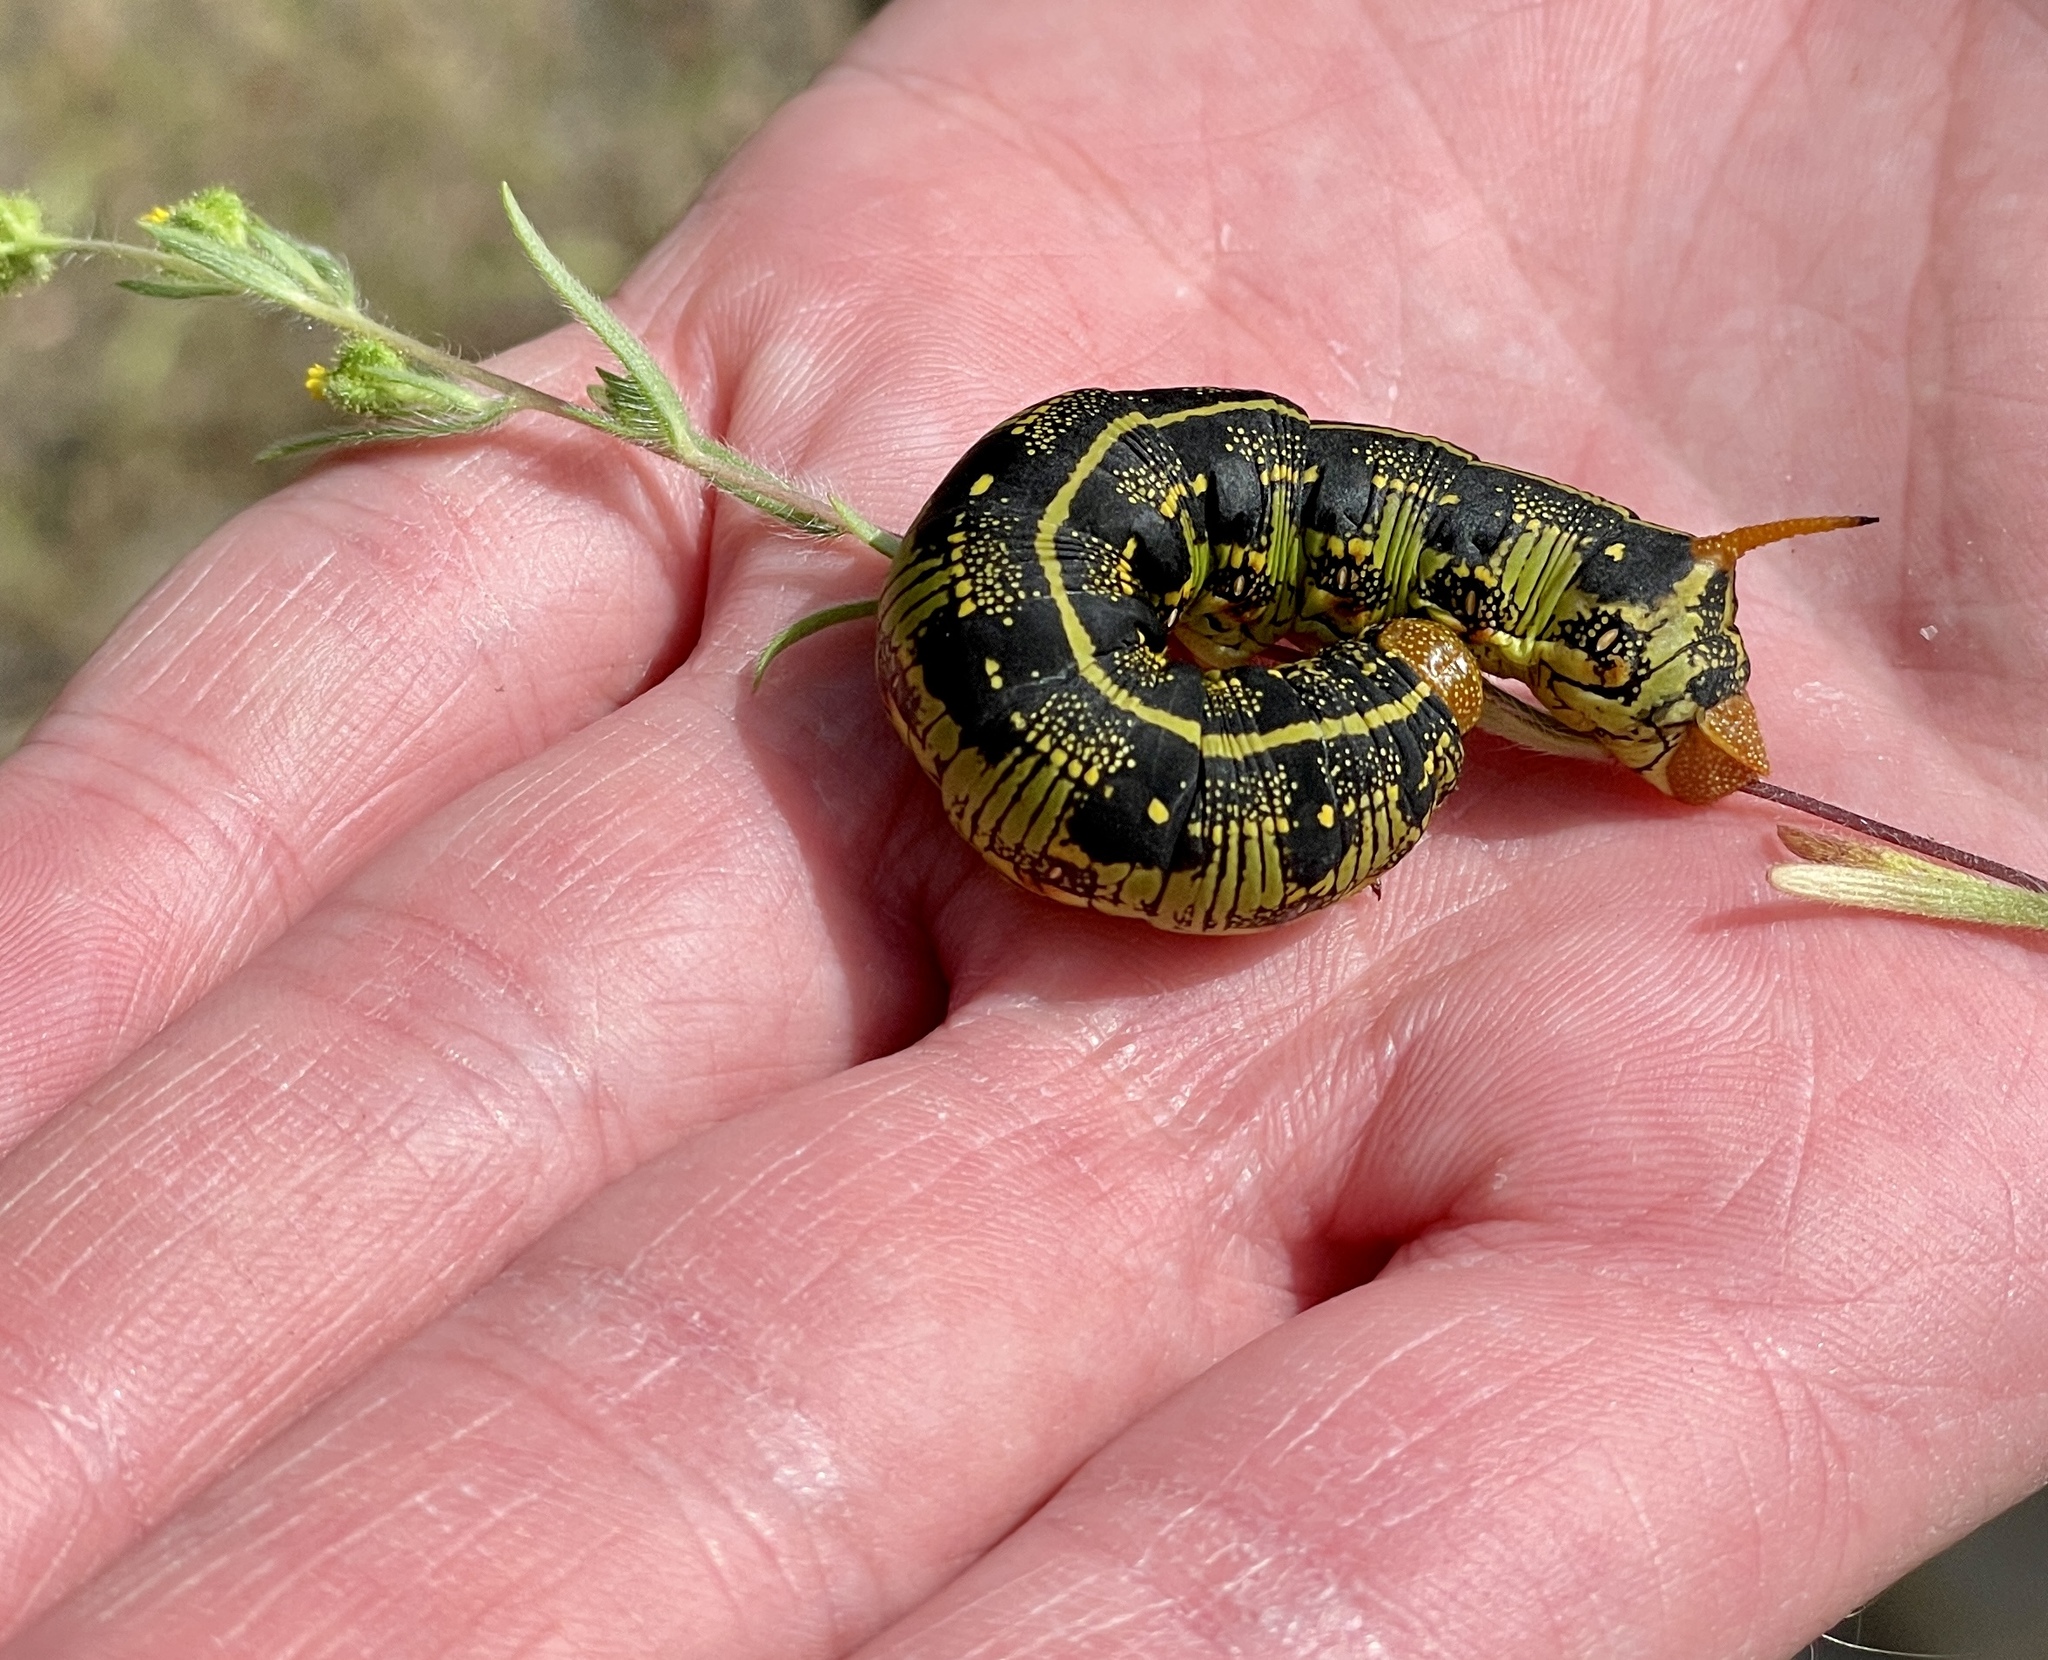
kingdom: Animalia
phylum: Arthropoda
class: Insecta
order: Lepidoptera
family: Sphingidae
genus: Hyles
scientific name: Hyles lineata
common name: White-lined sphinx
